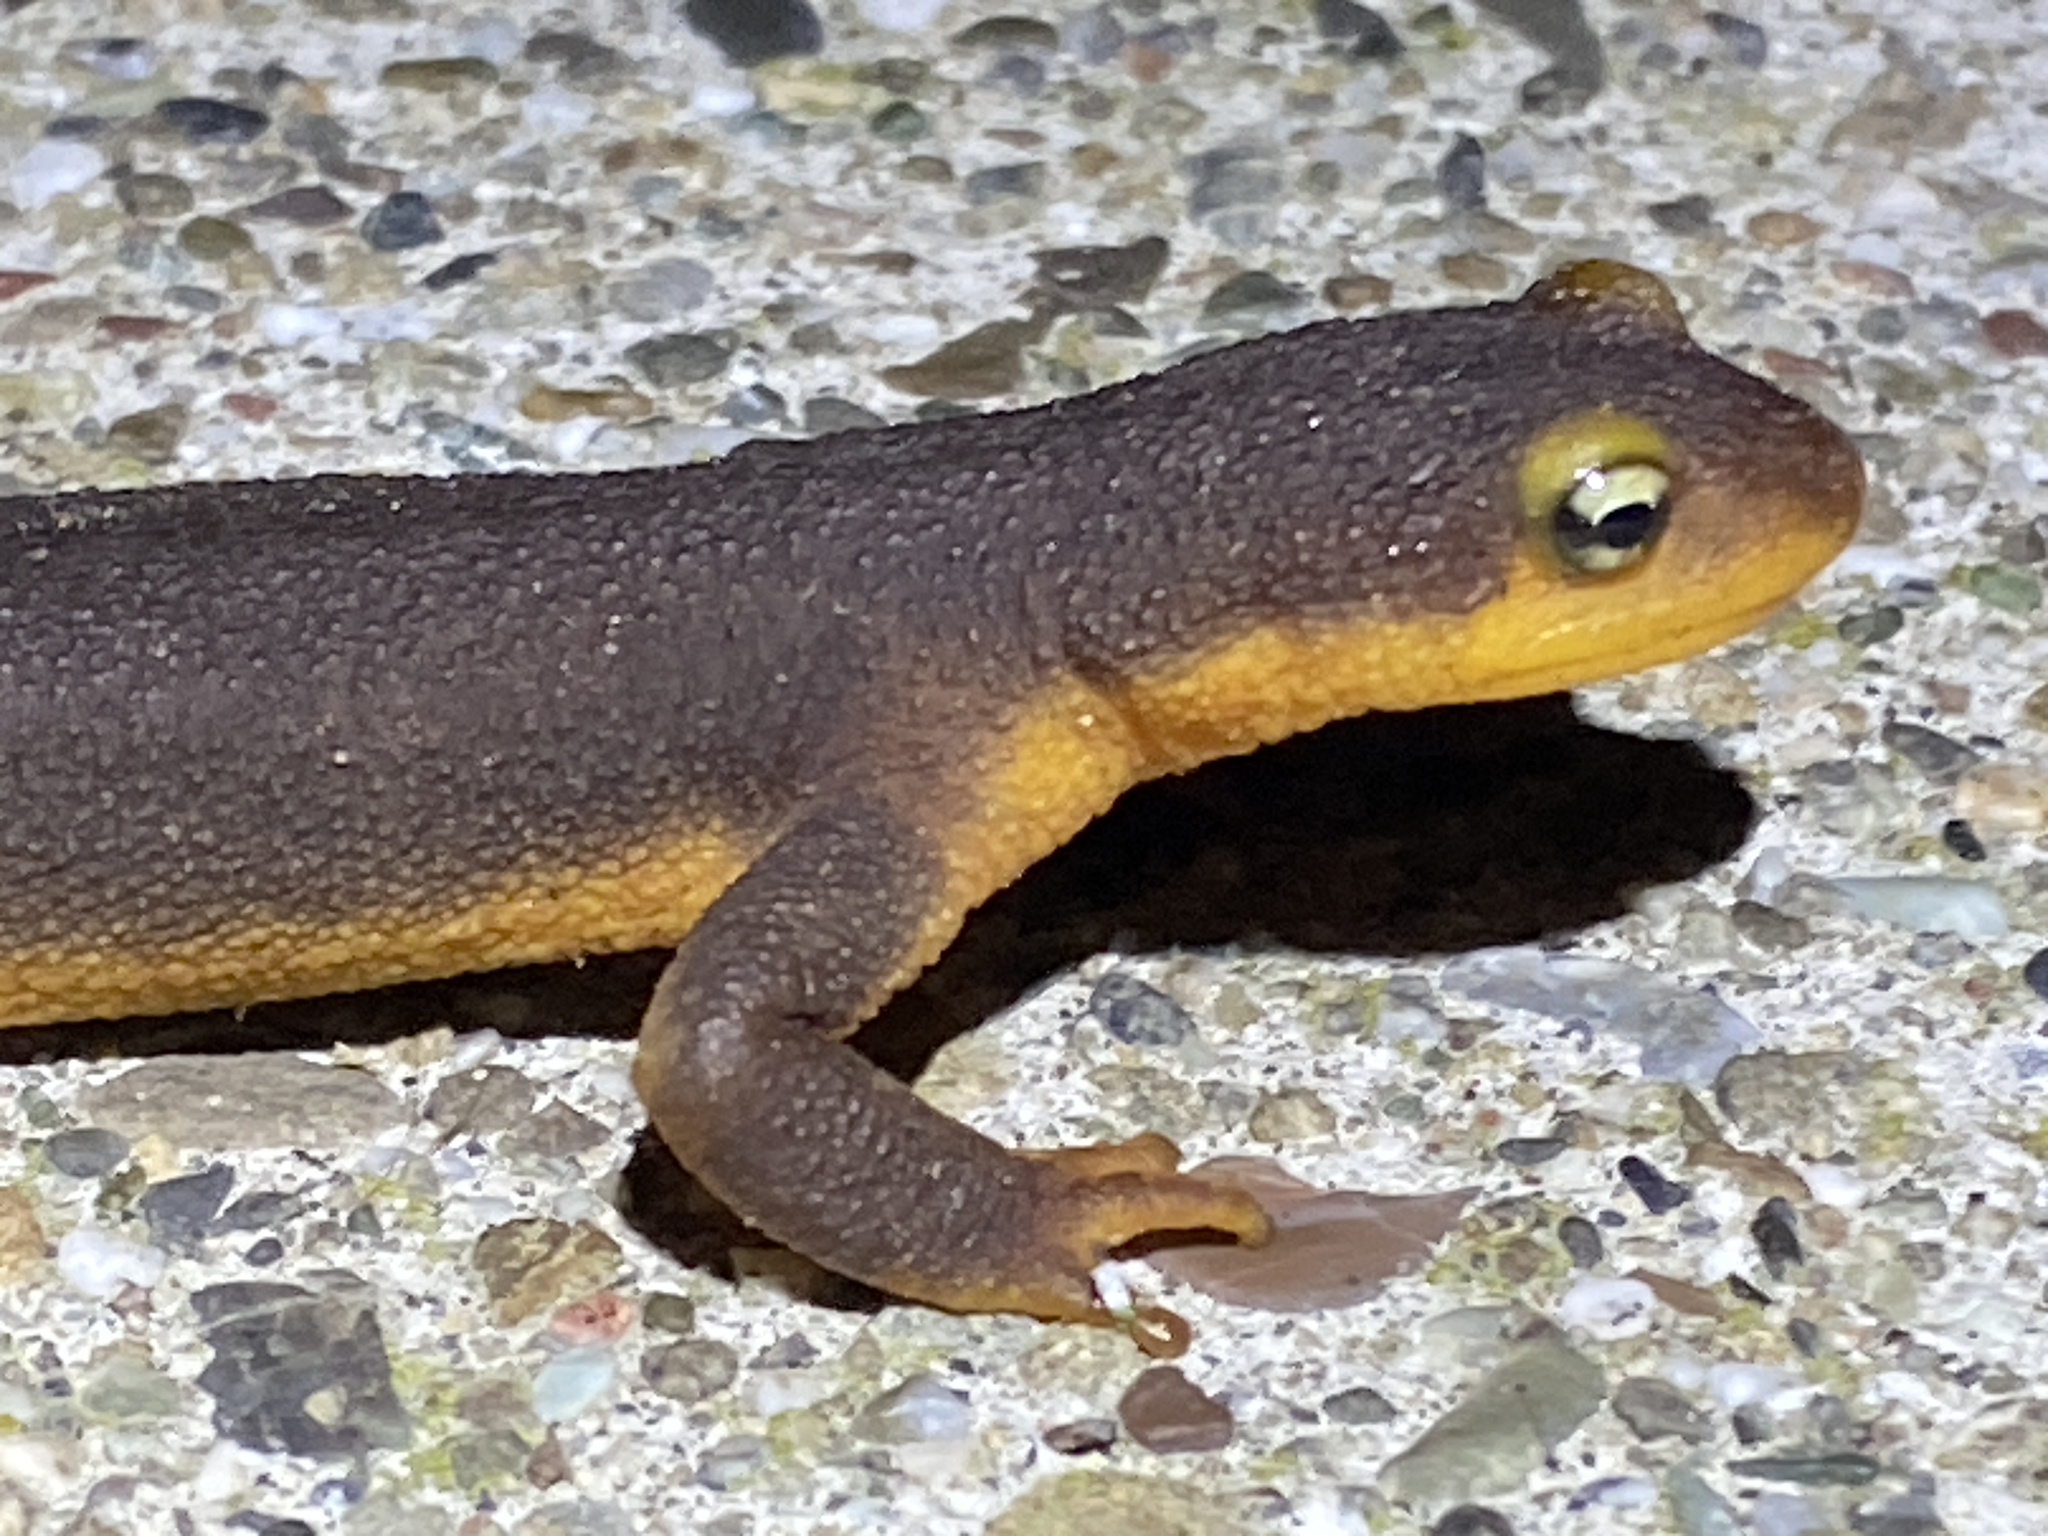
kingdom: Animalia
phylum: Chordata
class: Amphibia
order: Caudata
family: Salamandridae
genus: Taricha
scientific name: Taricha torosa
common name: California newt
